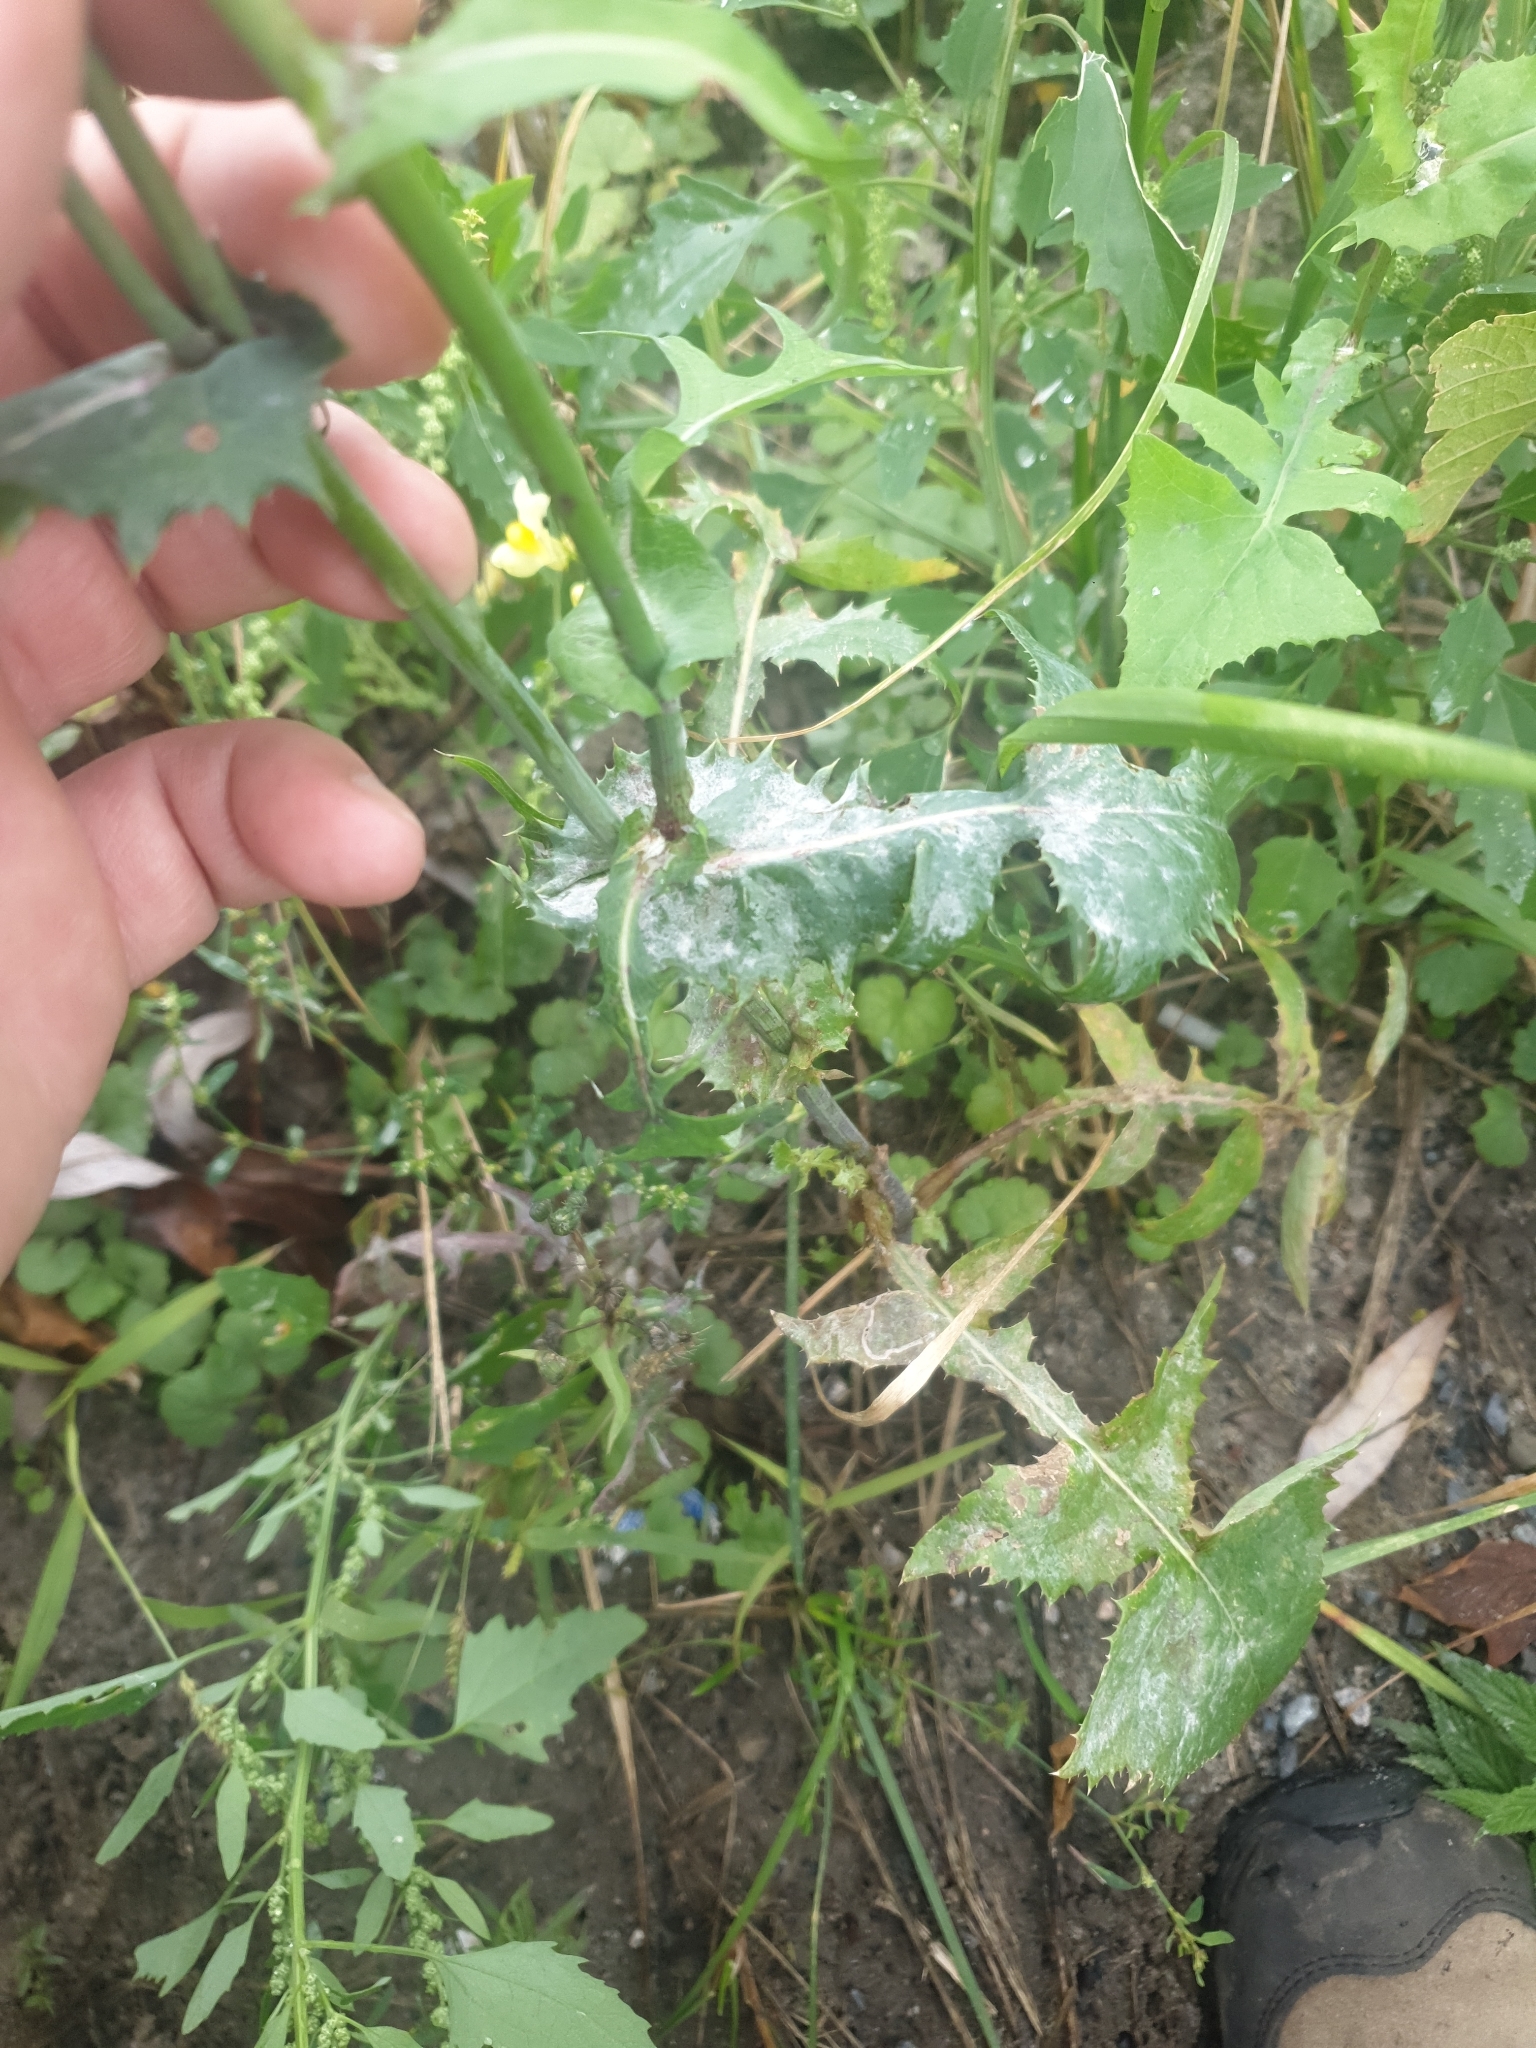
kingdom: Plantae
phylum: Tracheophyta
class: Magnoliopsida
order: Asterales
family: Asteraceae
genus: Sonchus
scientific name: Sonchus oleraceus
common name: Common sowthistle
